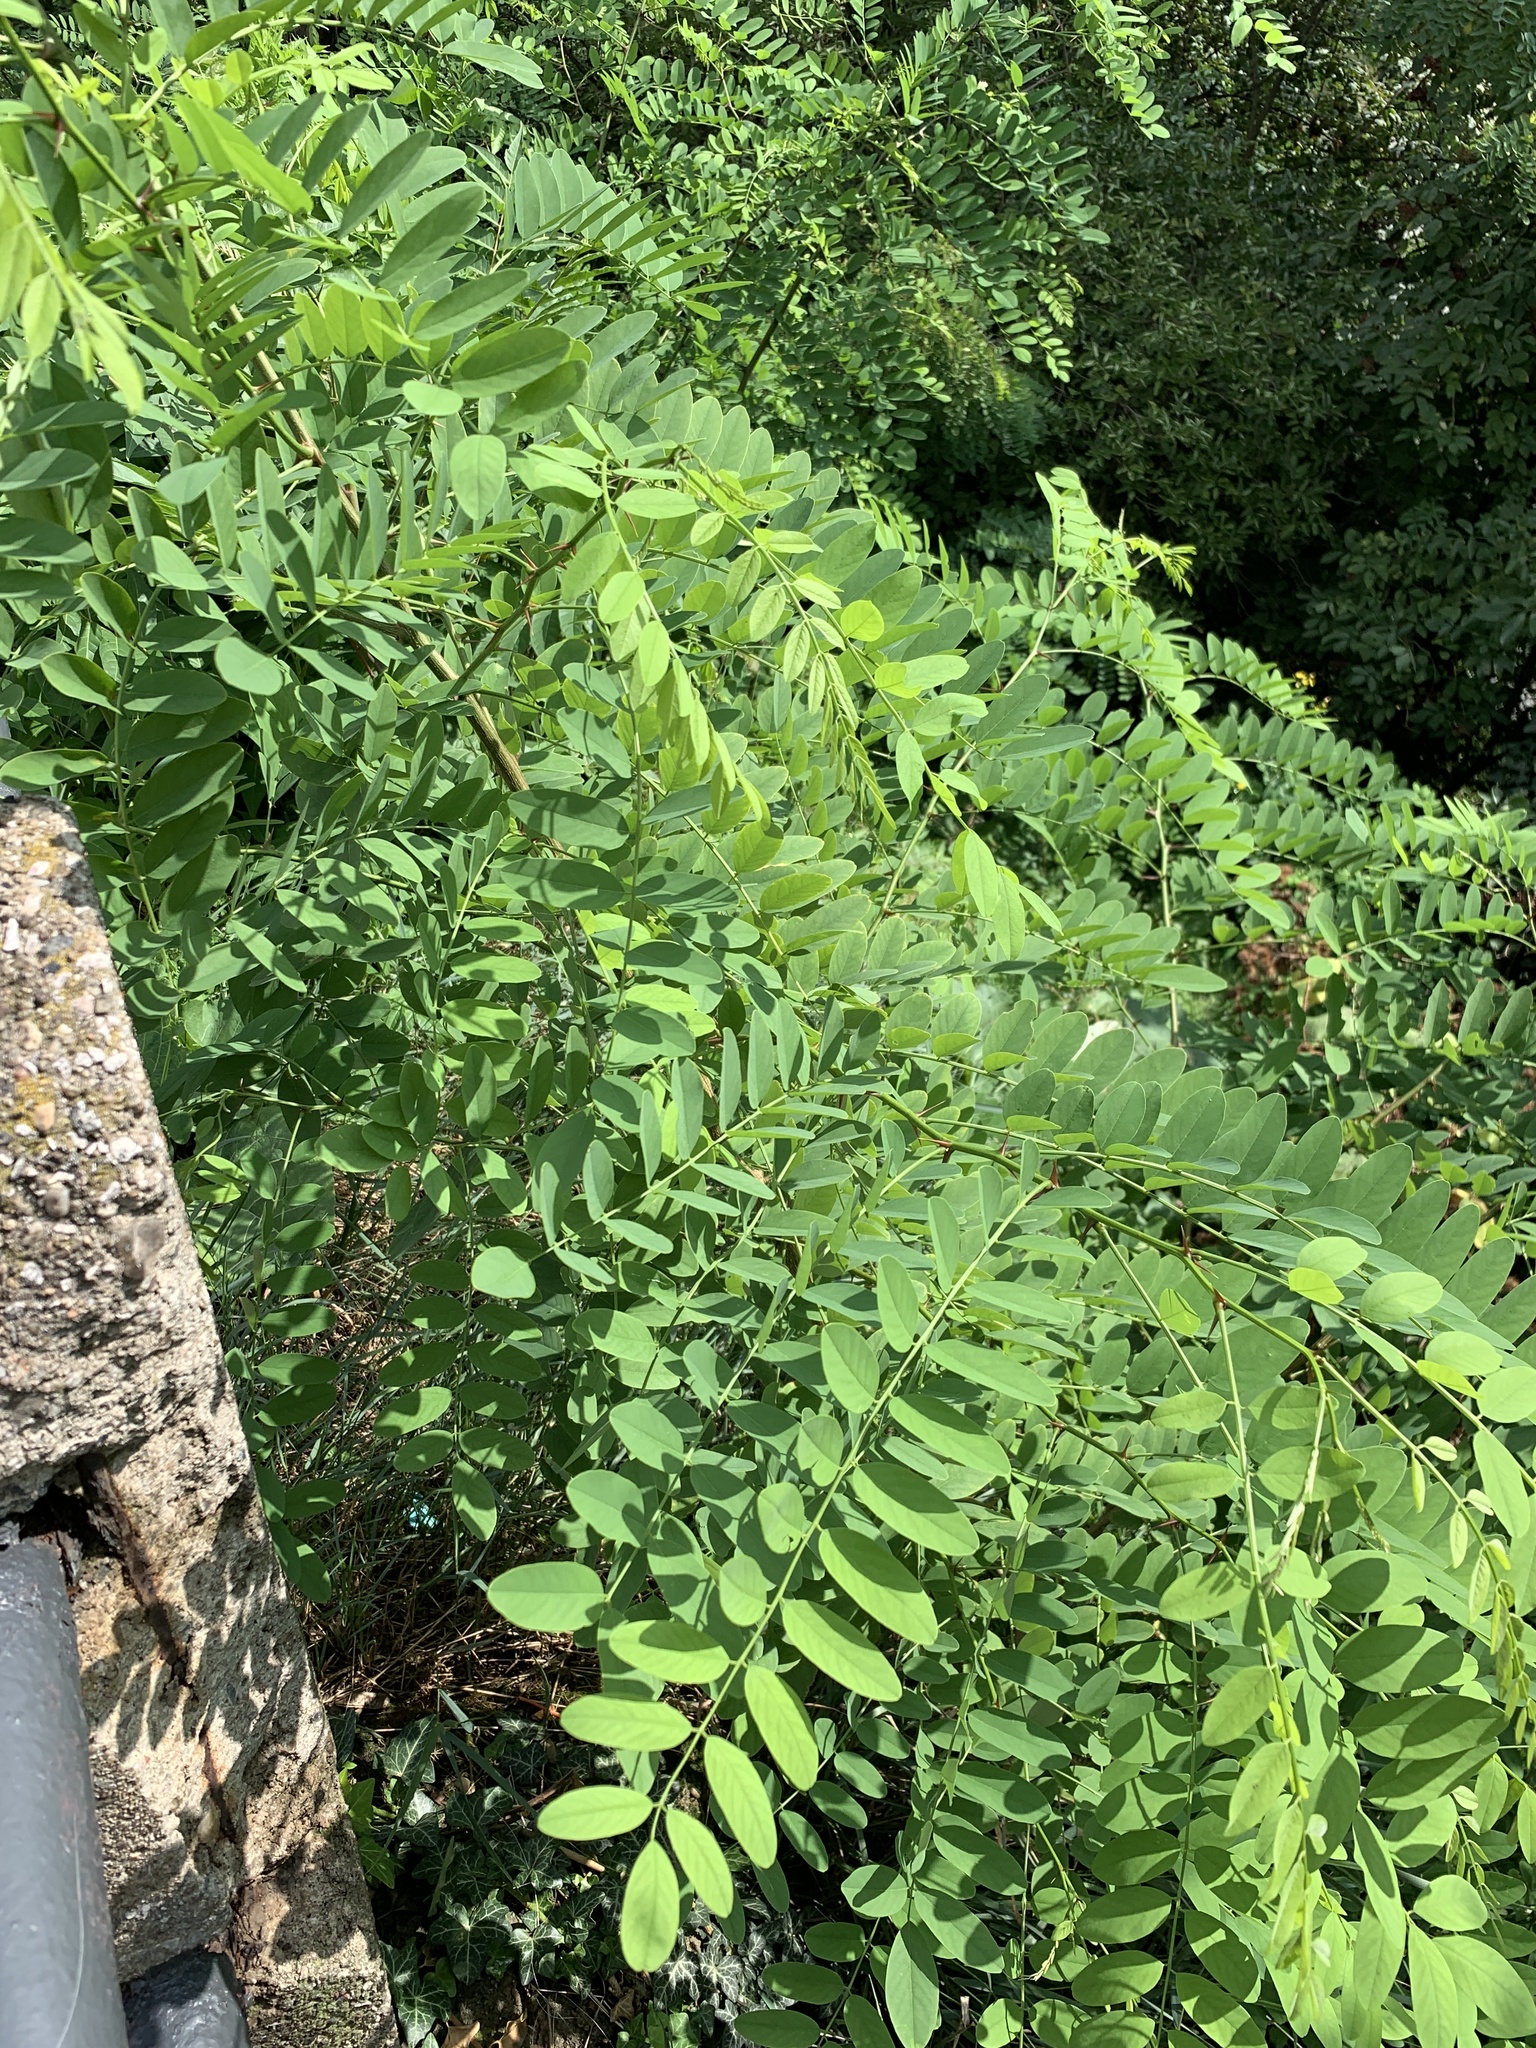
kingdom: Plantae
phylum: Tracheophyta
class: Magnoliopsida
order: Fabales
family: Fabaceae
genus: Robinia
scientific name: Robinia pseudoacacia
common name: Black locust
